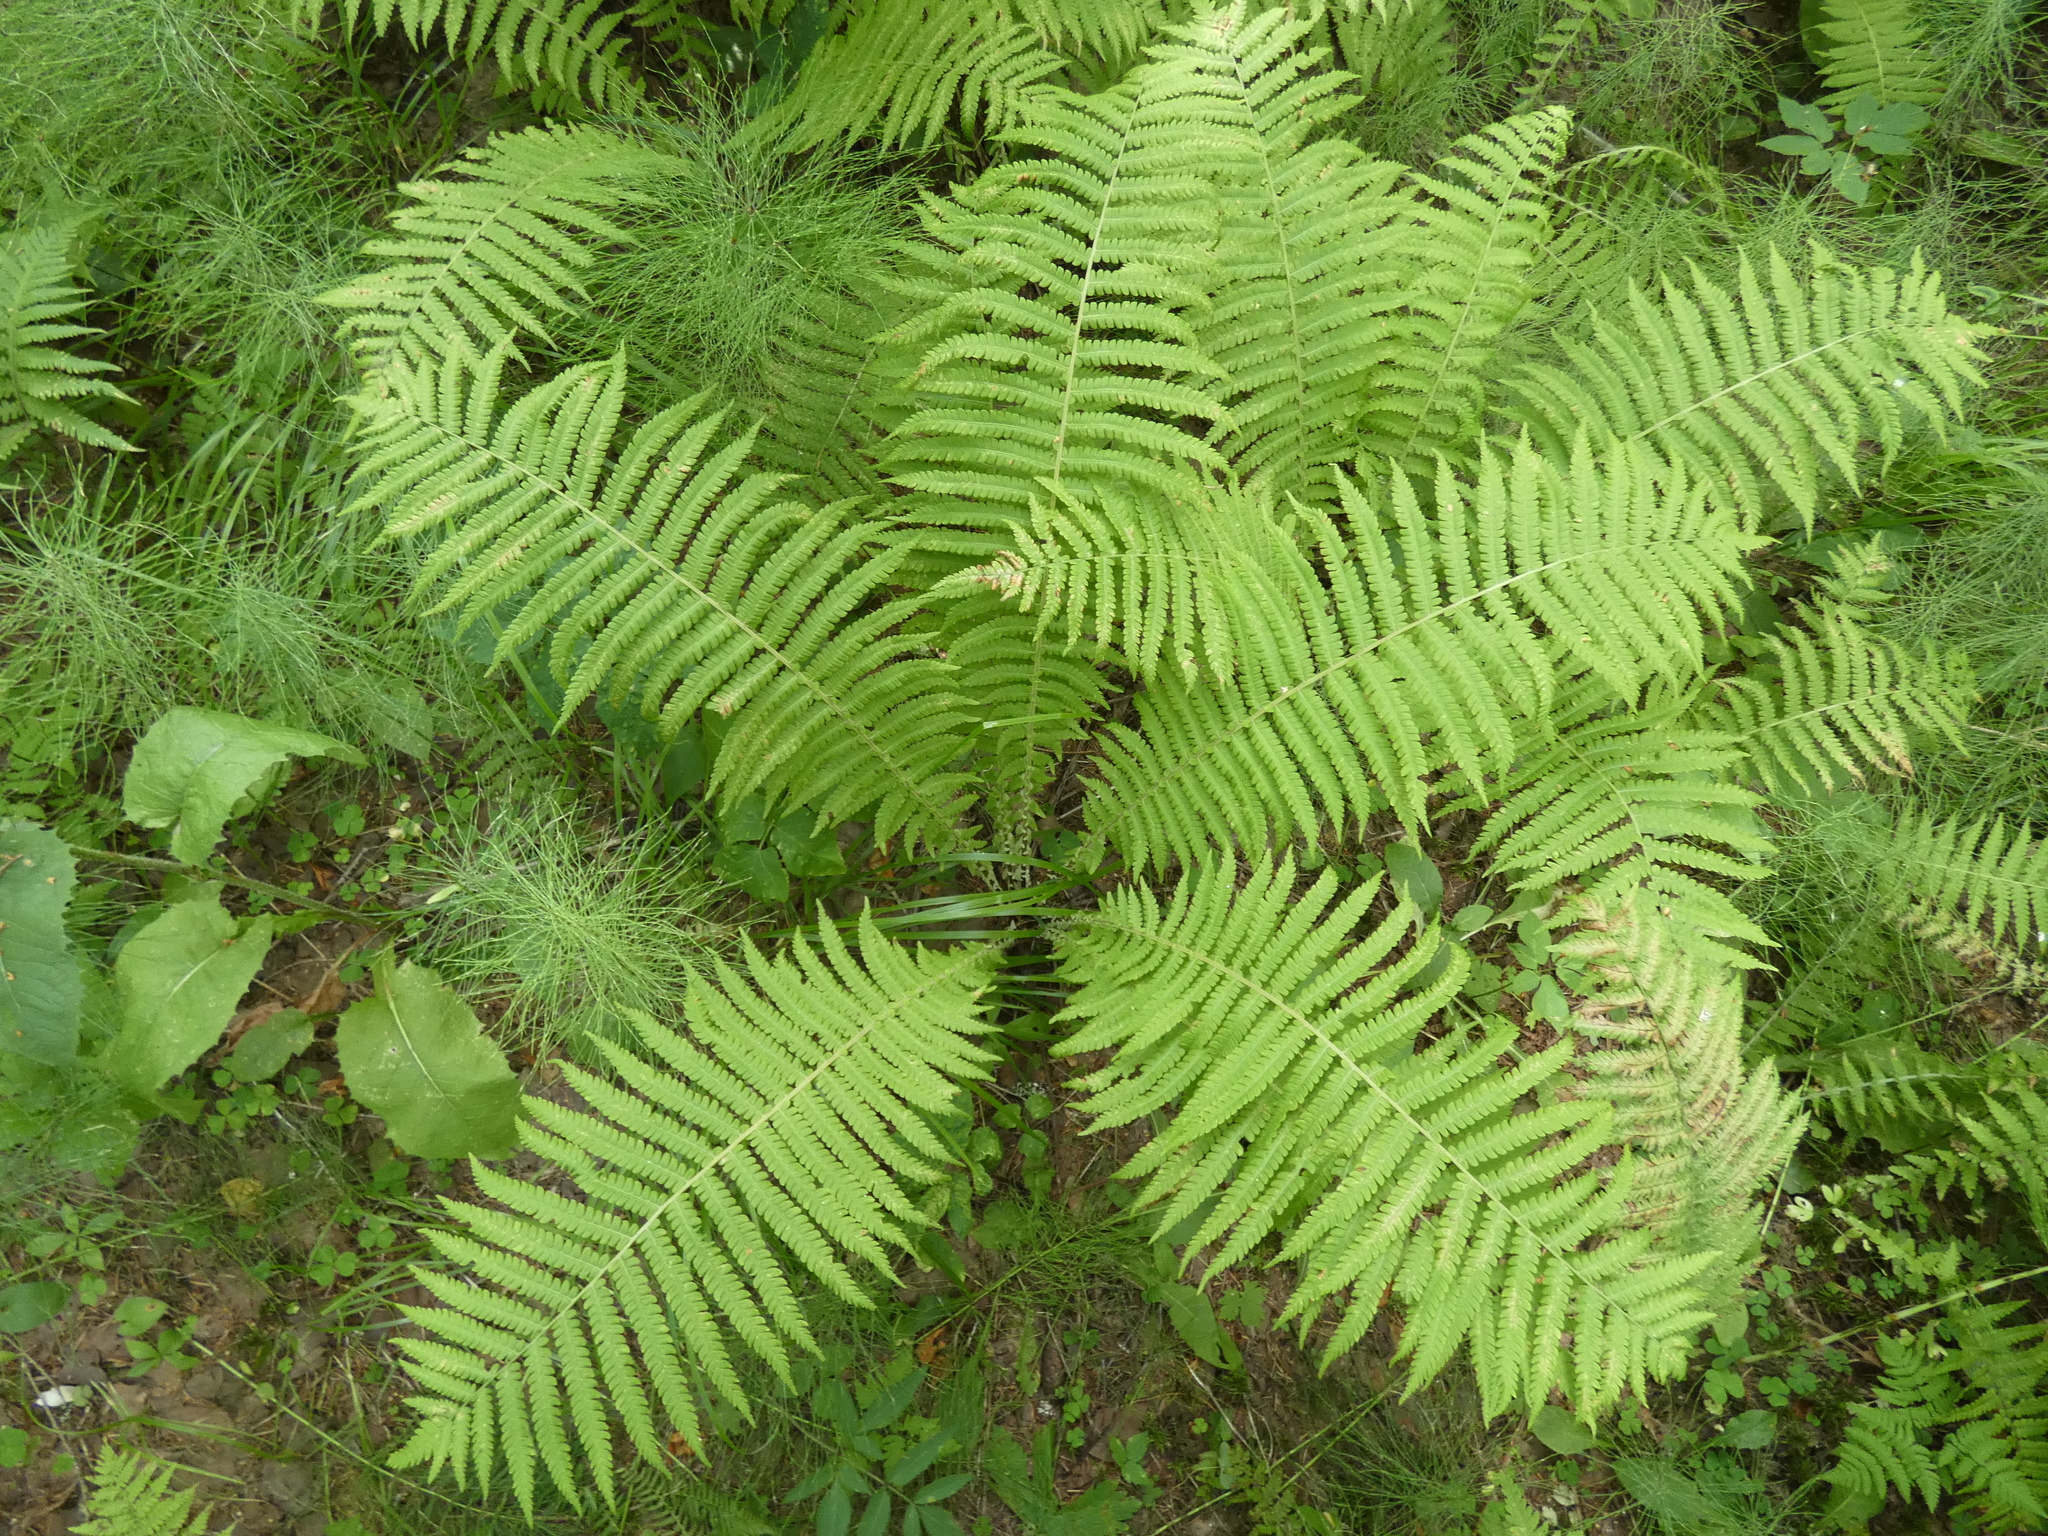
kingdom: Plantae
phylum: Tracheophyta
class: Polypodiopsida
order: Polypodiales
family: Onocleaceae
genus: Matteuccia
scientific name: Matteuccia struthiopteris
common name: Ostrich fern
